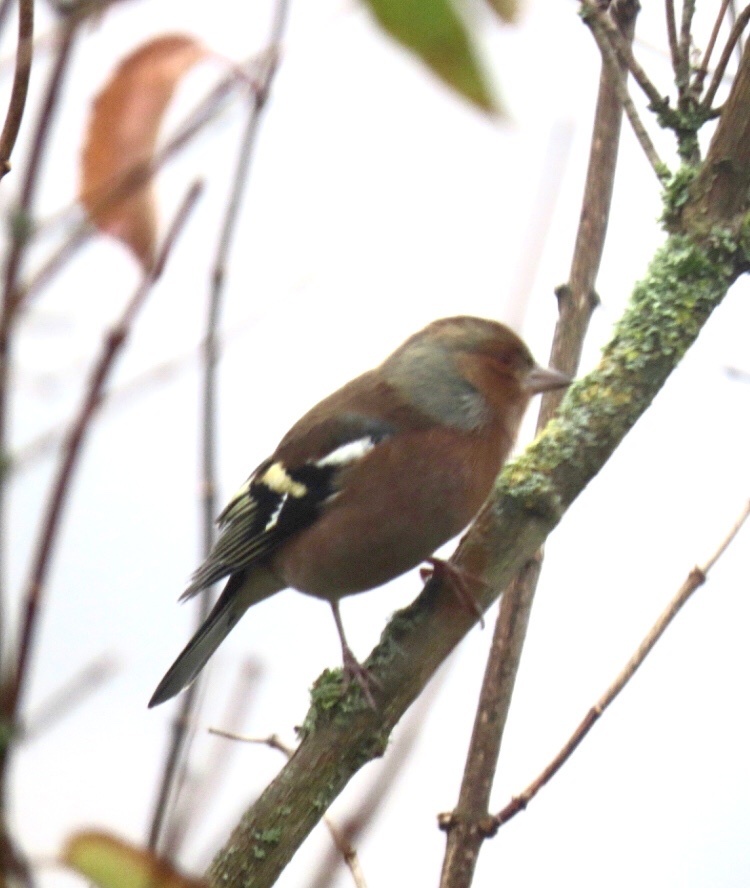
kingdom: Animalia
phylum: Chordata
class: Aves
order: Passeriformes
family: Fringillidae
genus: Fringilla
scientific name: Fringilla coelebs
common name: Common chaffinch
